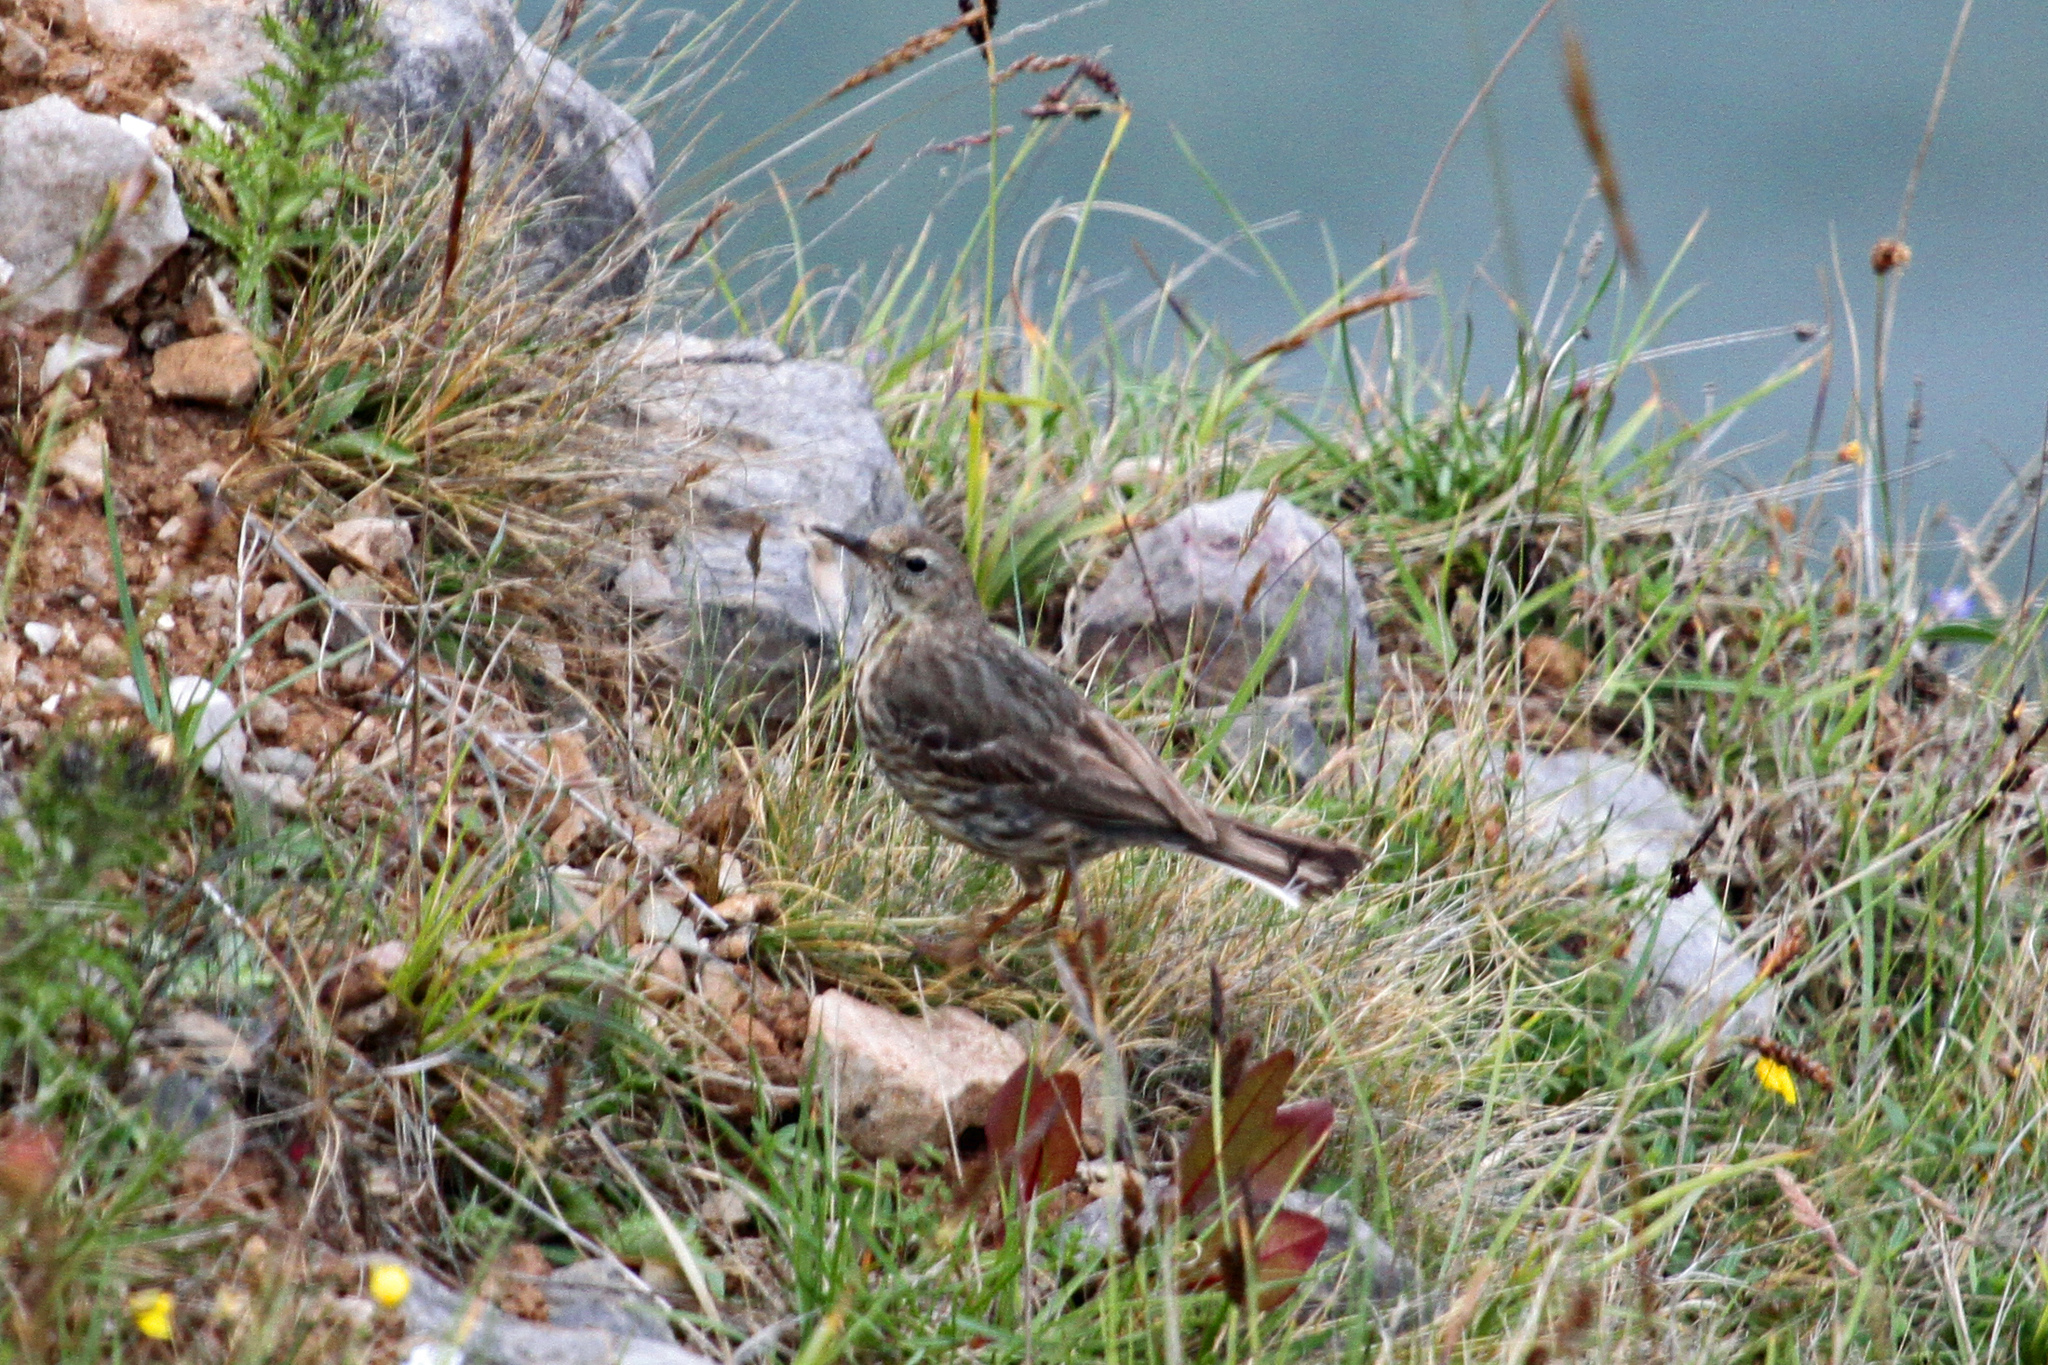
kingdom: Animalia
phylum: Chordata
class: Aves
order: Passeriformes
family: Motacillidae
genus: Anthus
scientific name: Anthus petrosus
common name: Eurasian rock pipit
